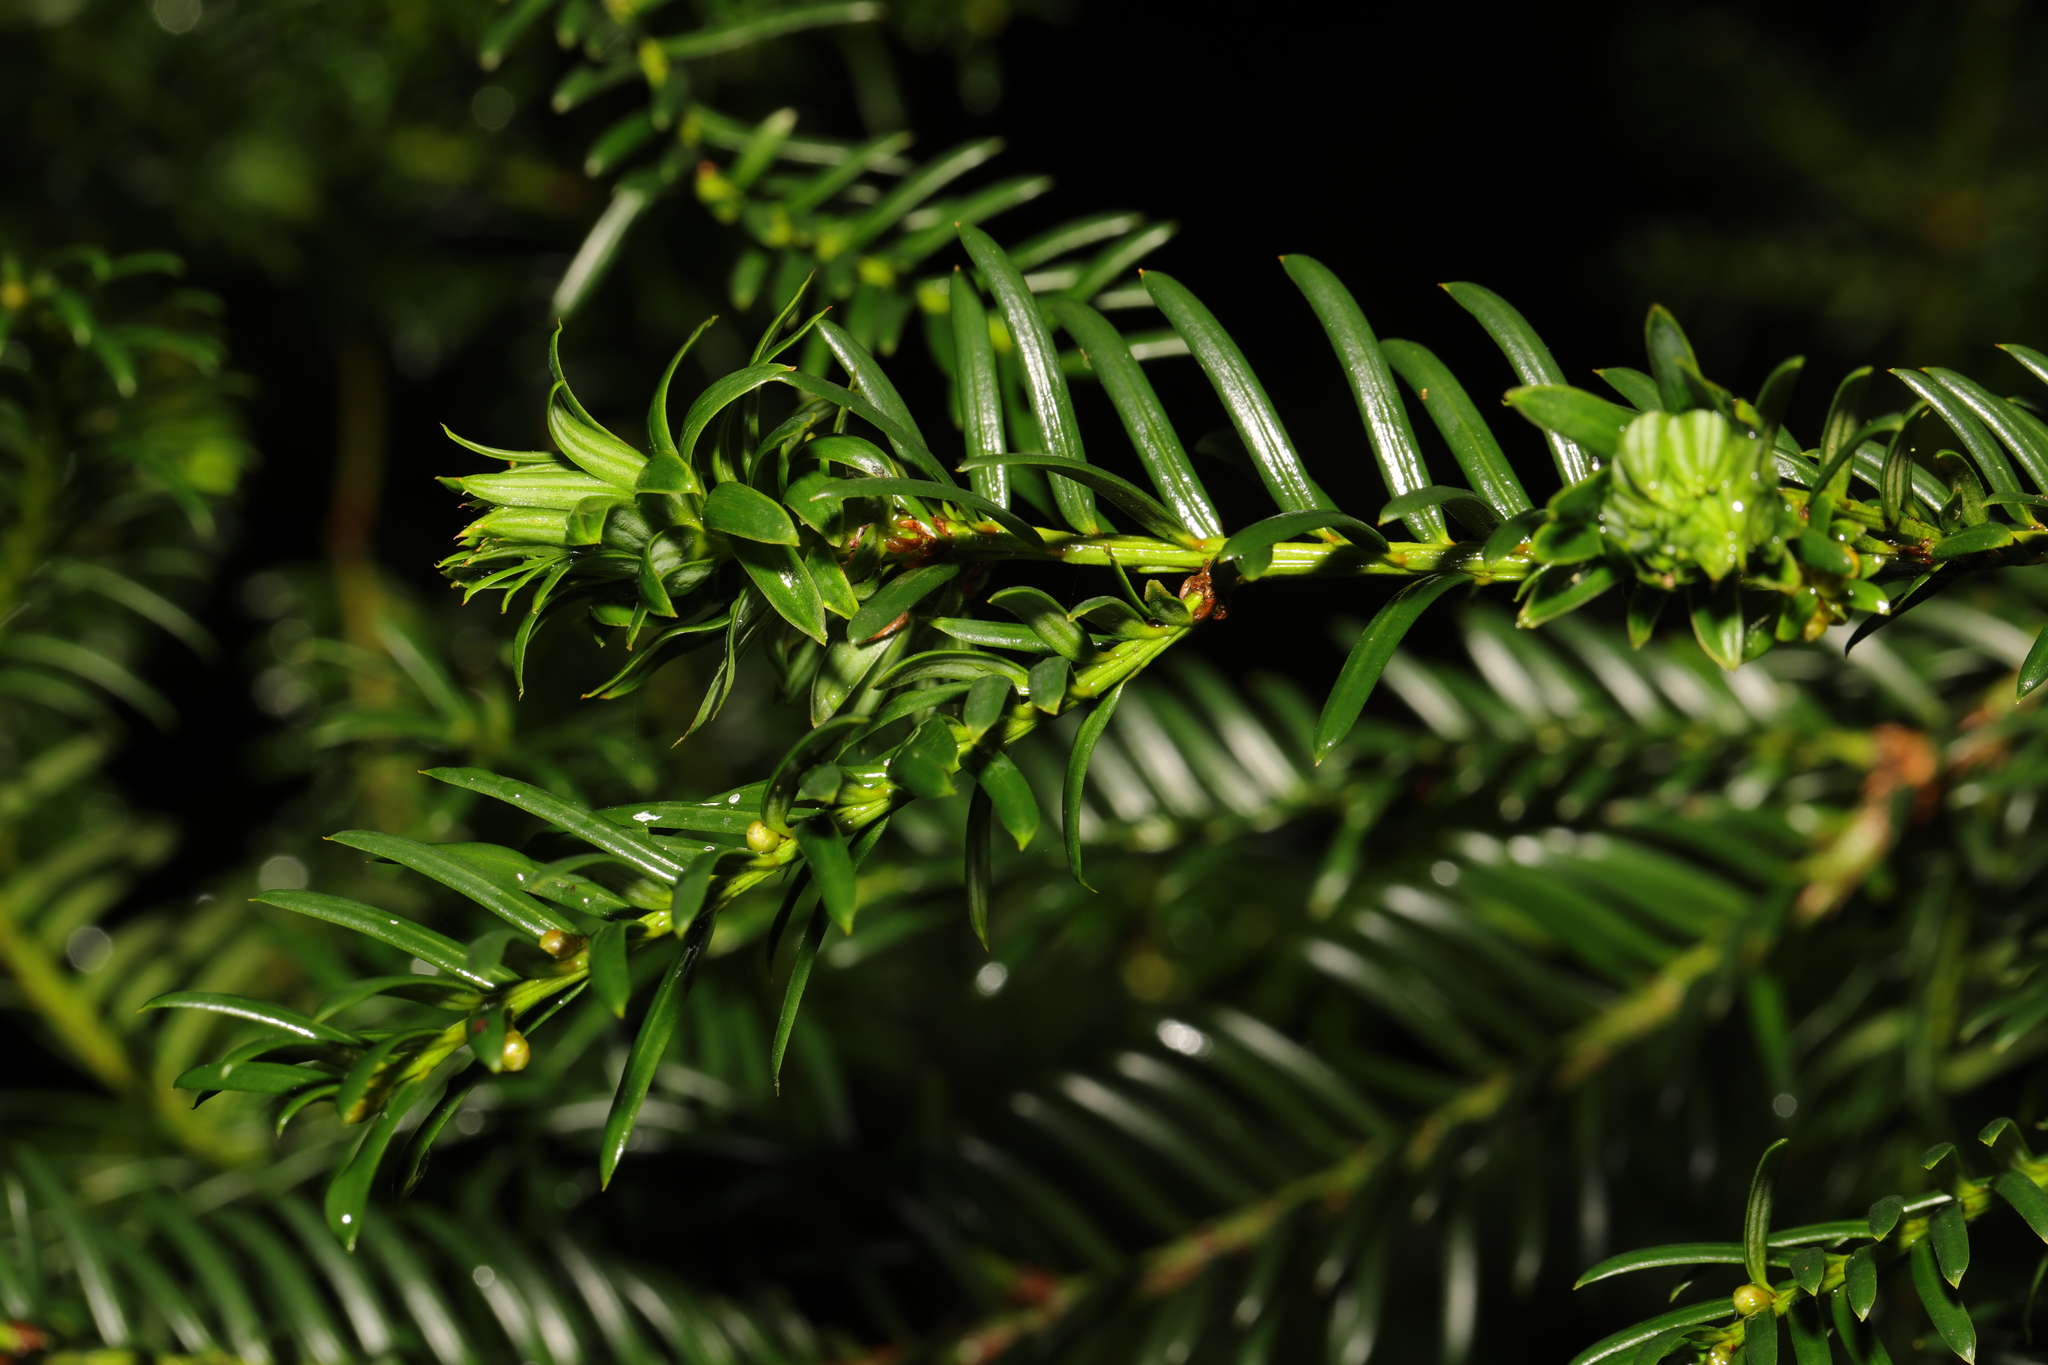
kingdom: Plantae
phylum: Tracheophyta
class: Pinopsida
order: Pinales
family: Taxaceae
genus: Taxus
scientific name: Taxus baccata
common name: Yew
